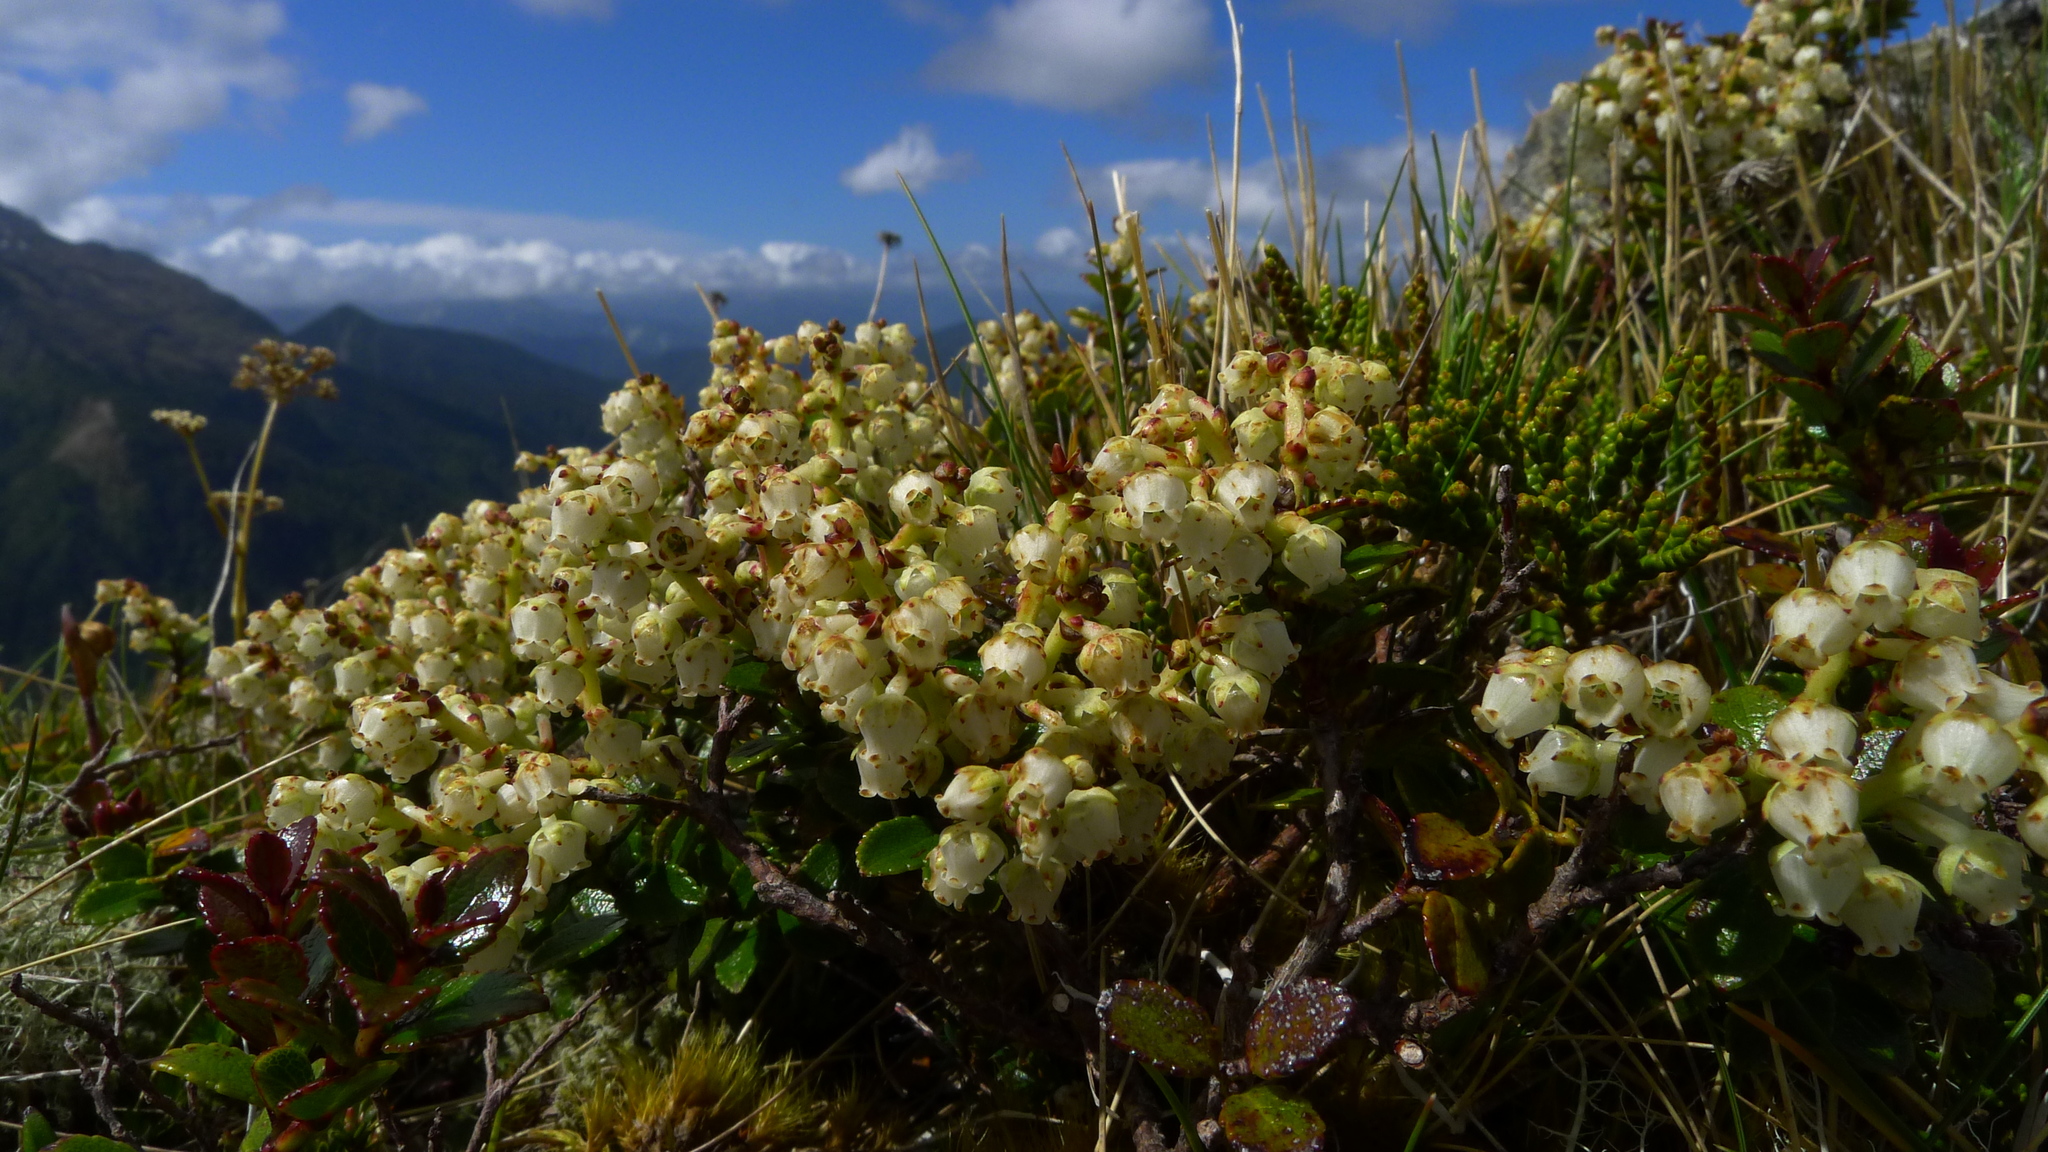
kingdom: Plantae
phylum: Tracheophyta
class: Magnoliopsida
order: Ericales
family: Ericaceae
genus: Gaultheria
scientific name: Gaultheria crassa
